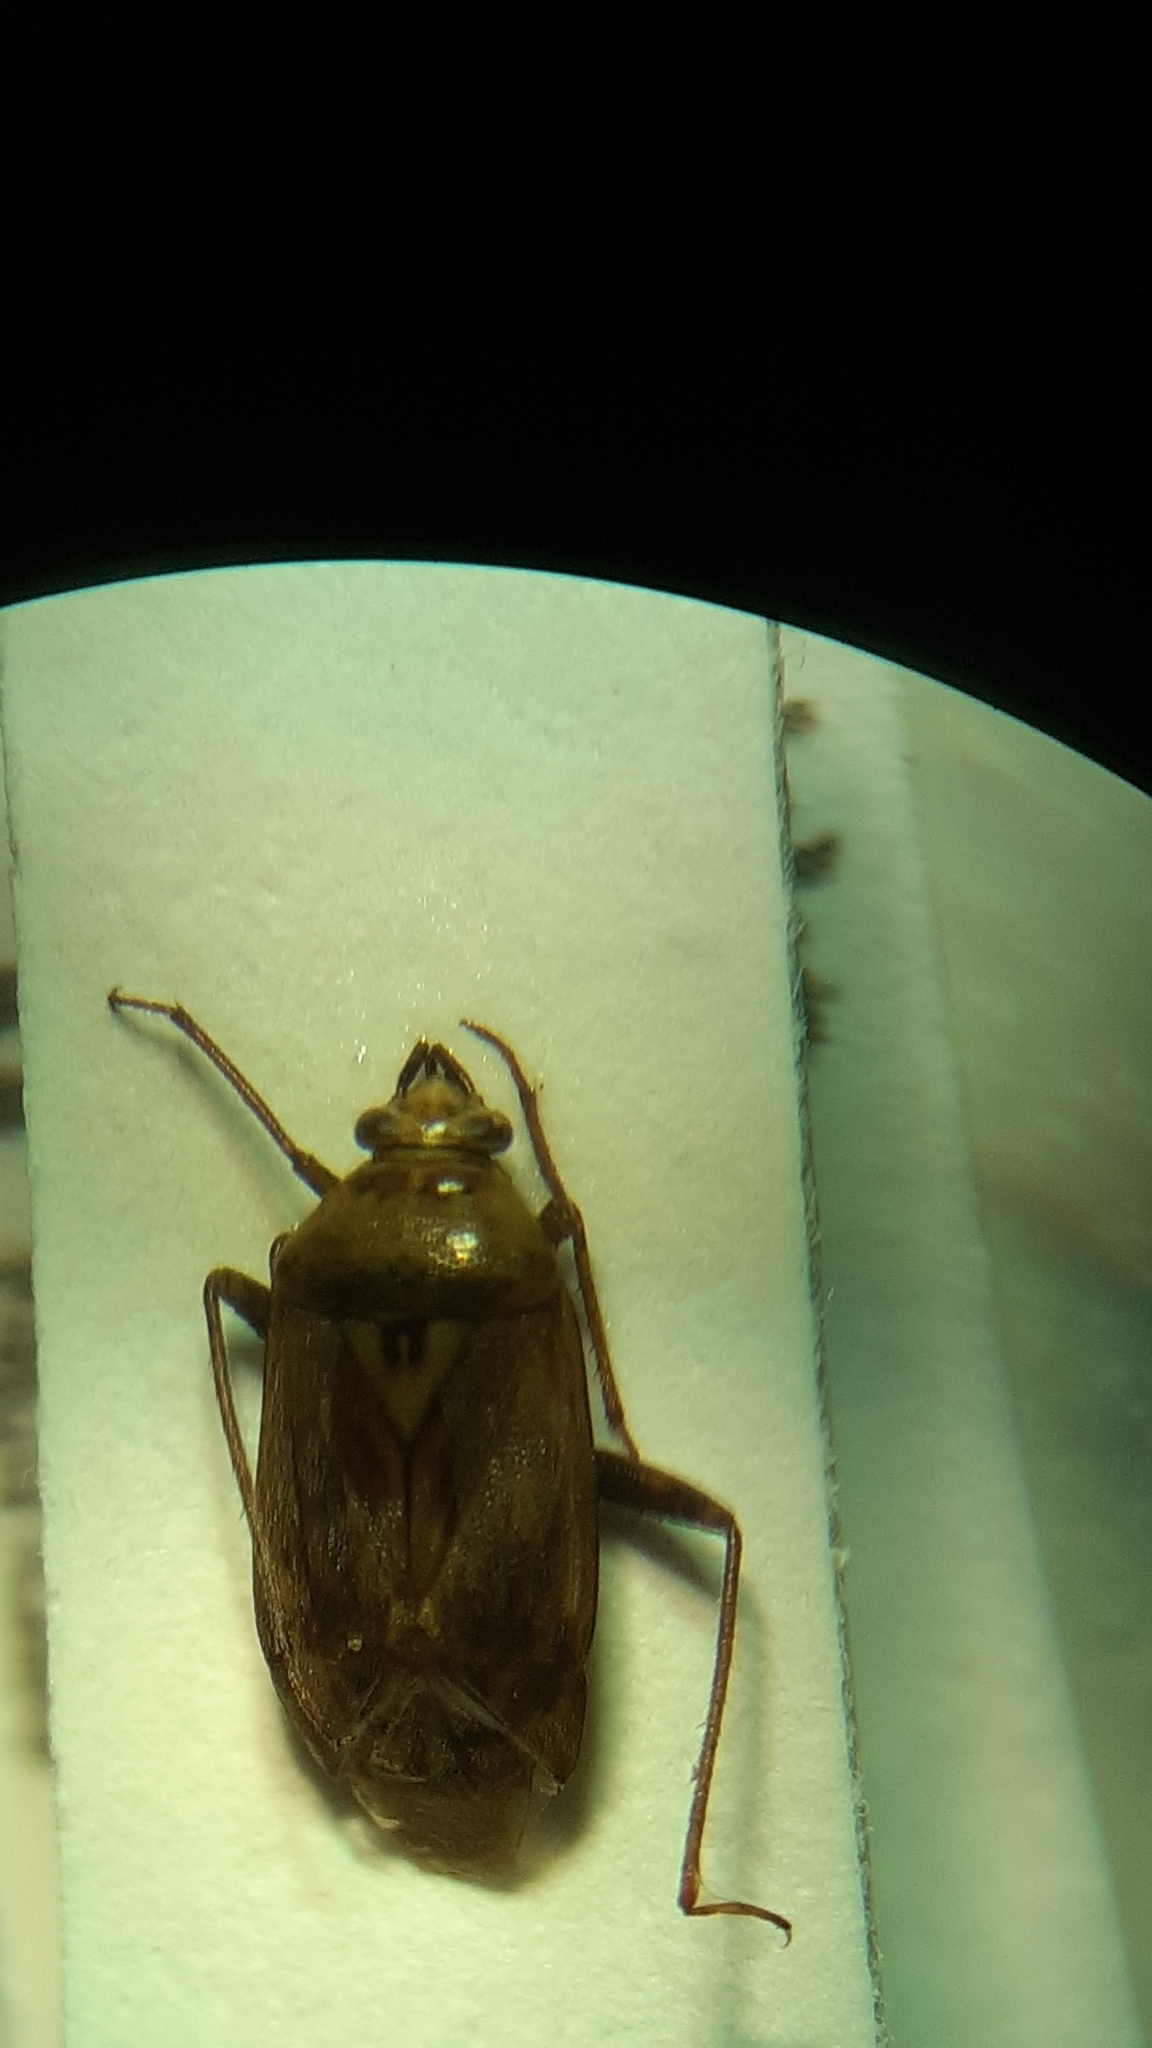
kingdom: Animalia
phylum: Arthropoda
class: Insecta
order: Hemiptera
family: Miridae
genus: Lygus
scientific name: Lygus rugulipennis
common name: European tarnished plant bug
